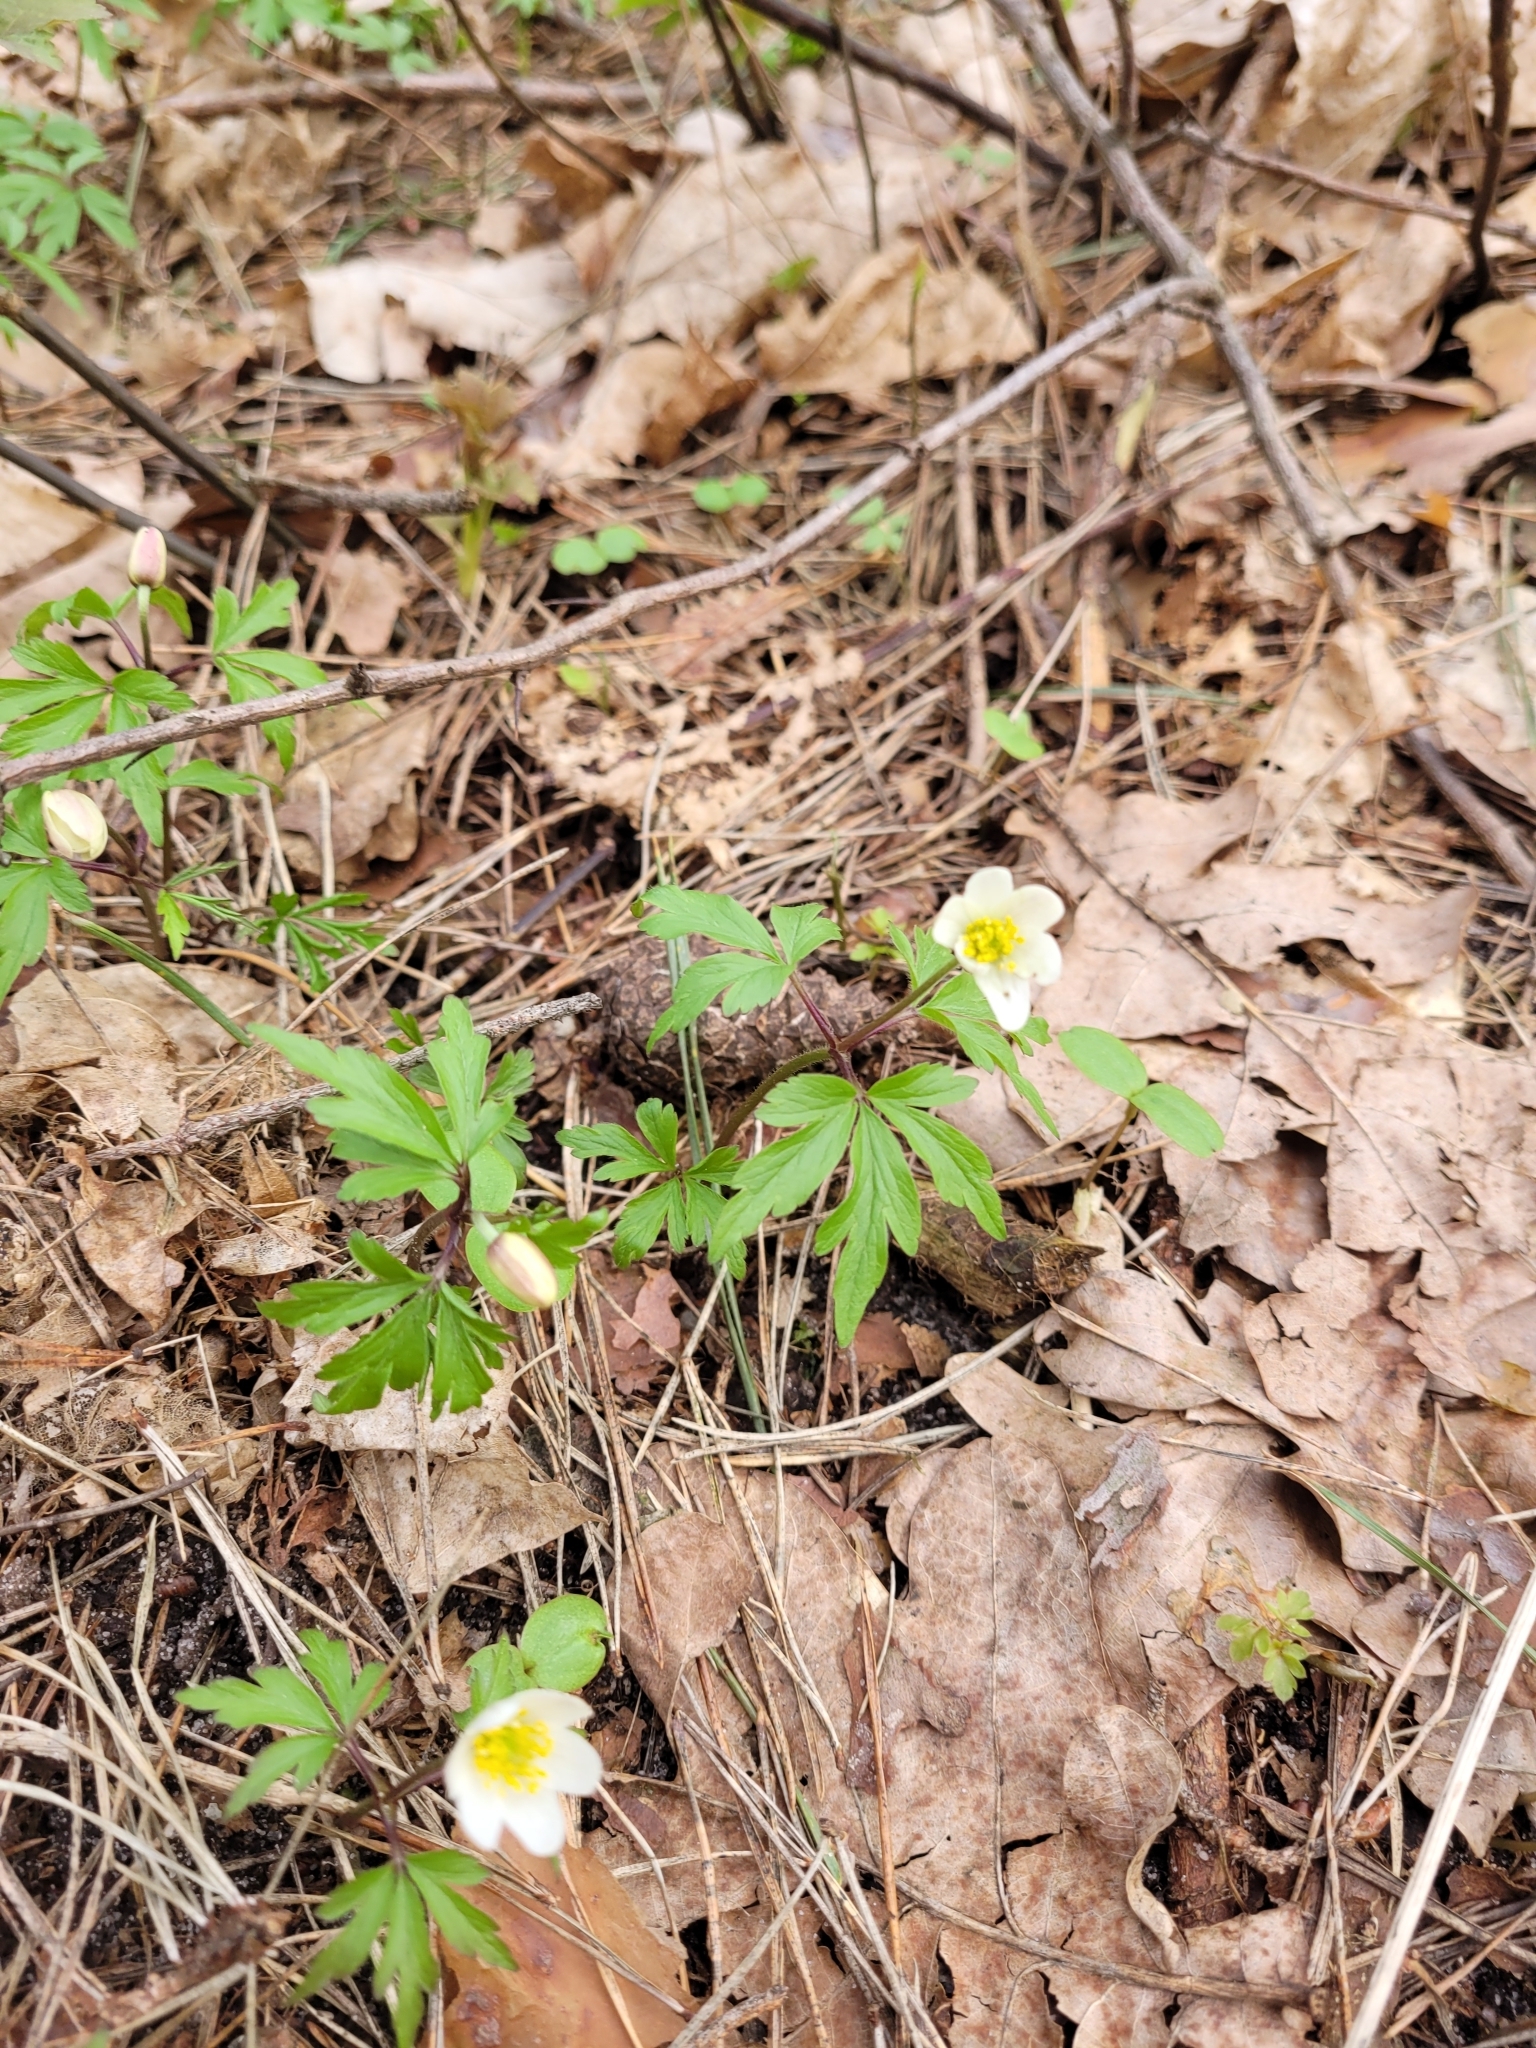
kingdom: Plantae
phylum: Tracheophyta
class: Magnoliopsida
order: Ranunculales
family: Ranunculaceae
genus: Anemone
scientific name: Anemone nemorosa
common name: Wood anemone
